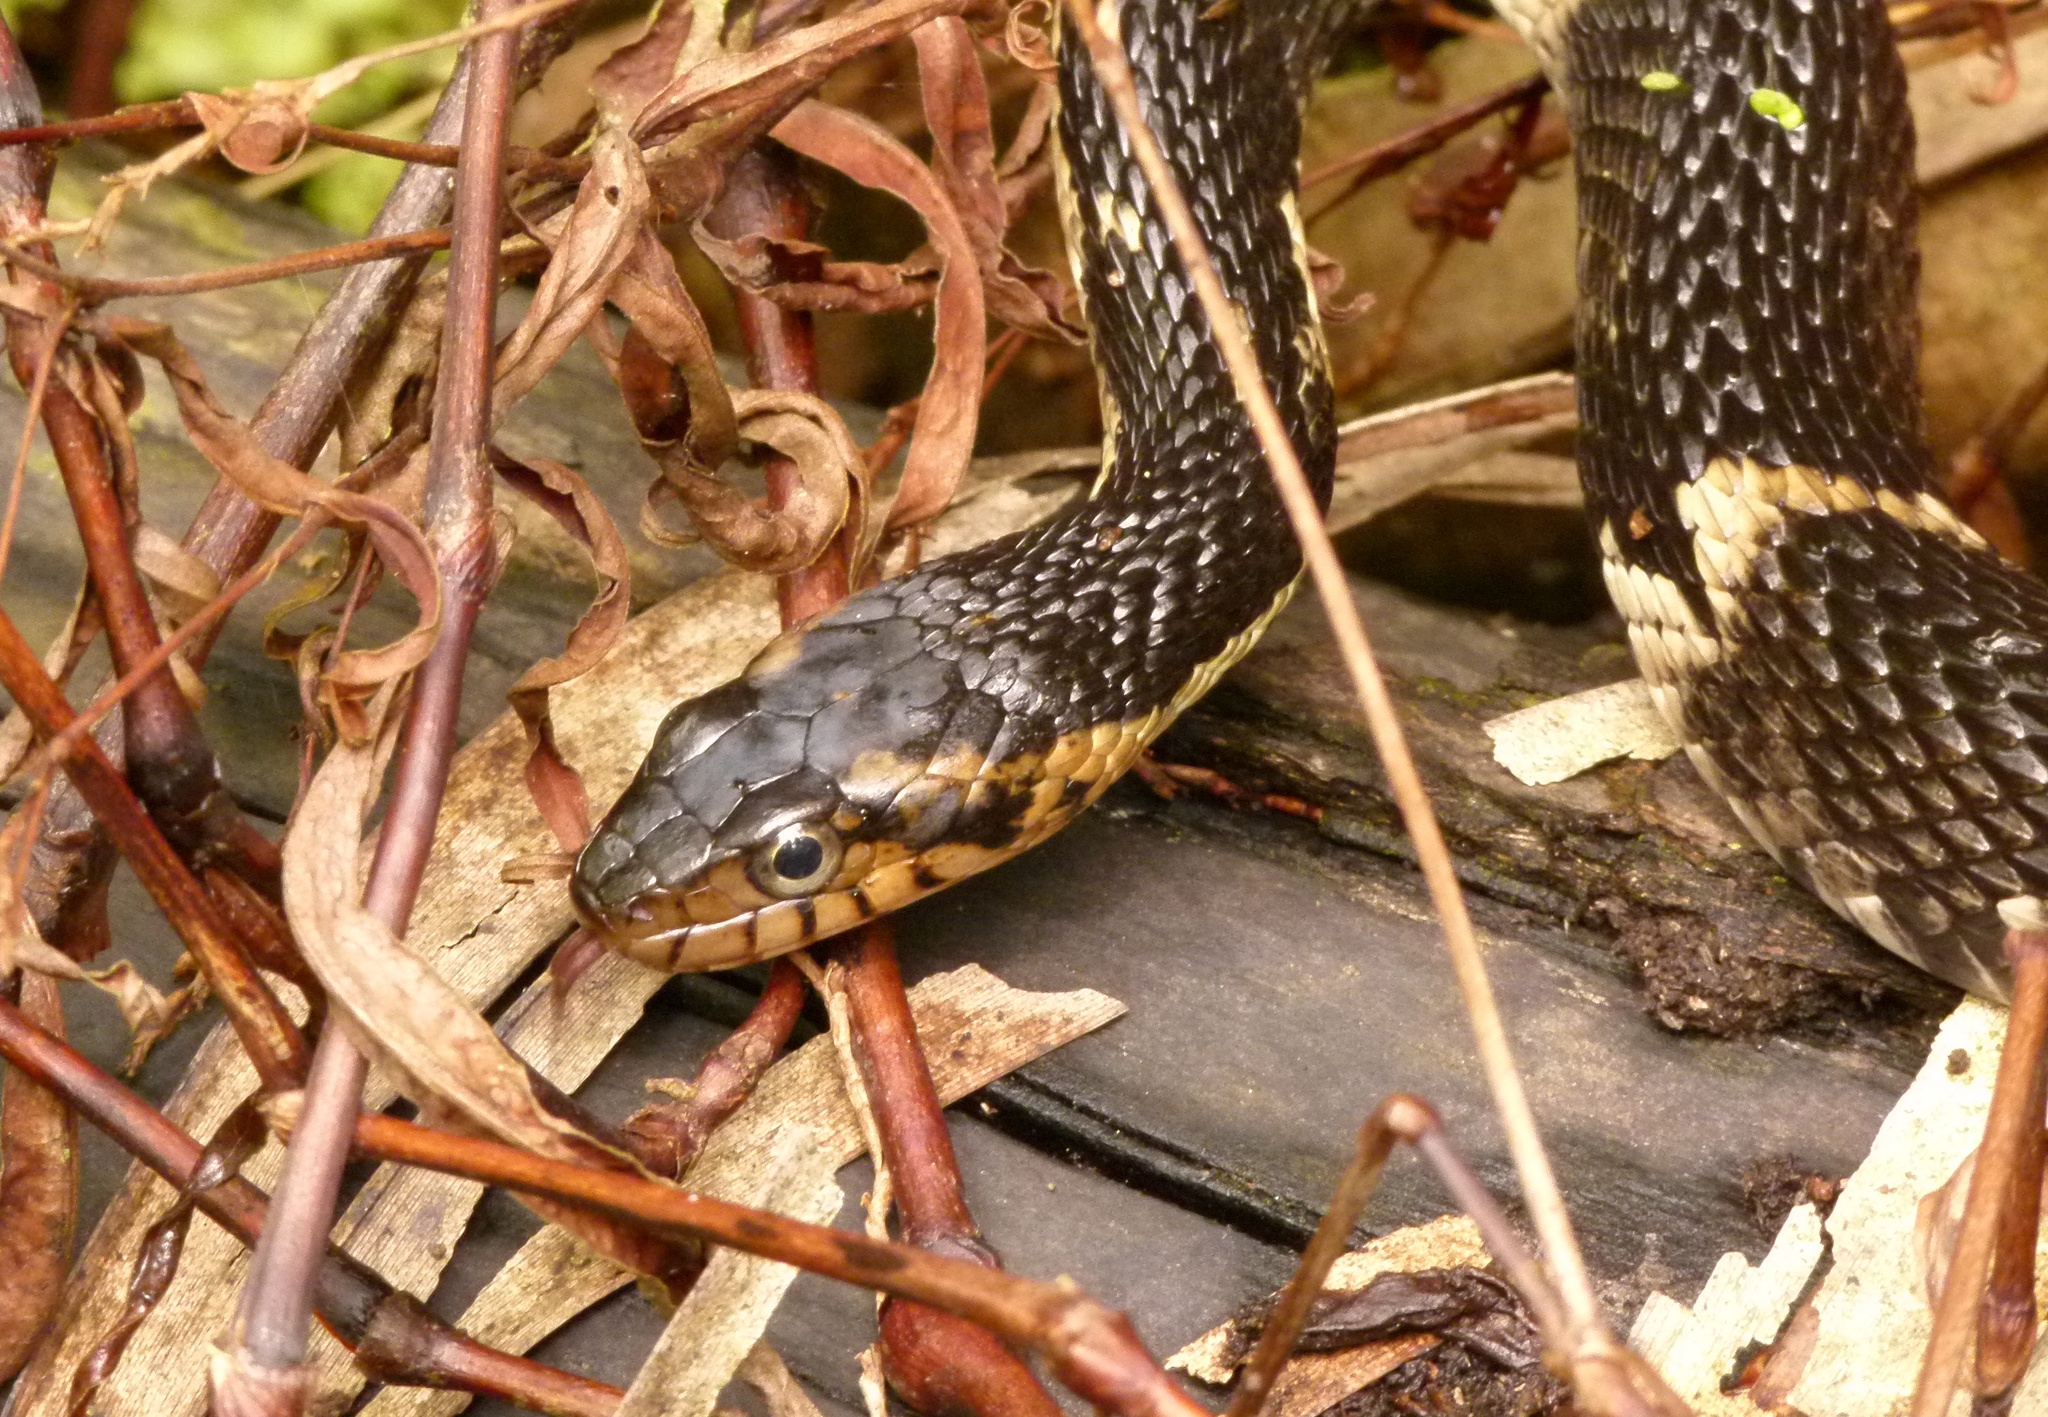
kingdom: Animalia
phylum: Chordata
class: Squamata
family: Colubridae
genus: Nerodia
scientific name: Nerodia fasciata
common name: Southern water snake
